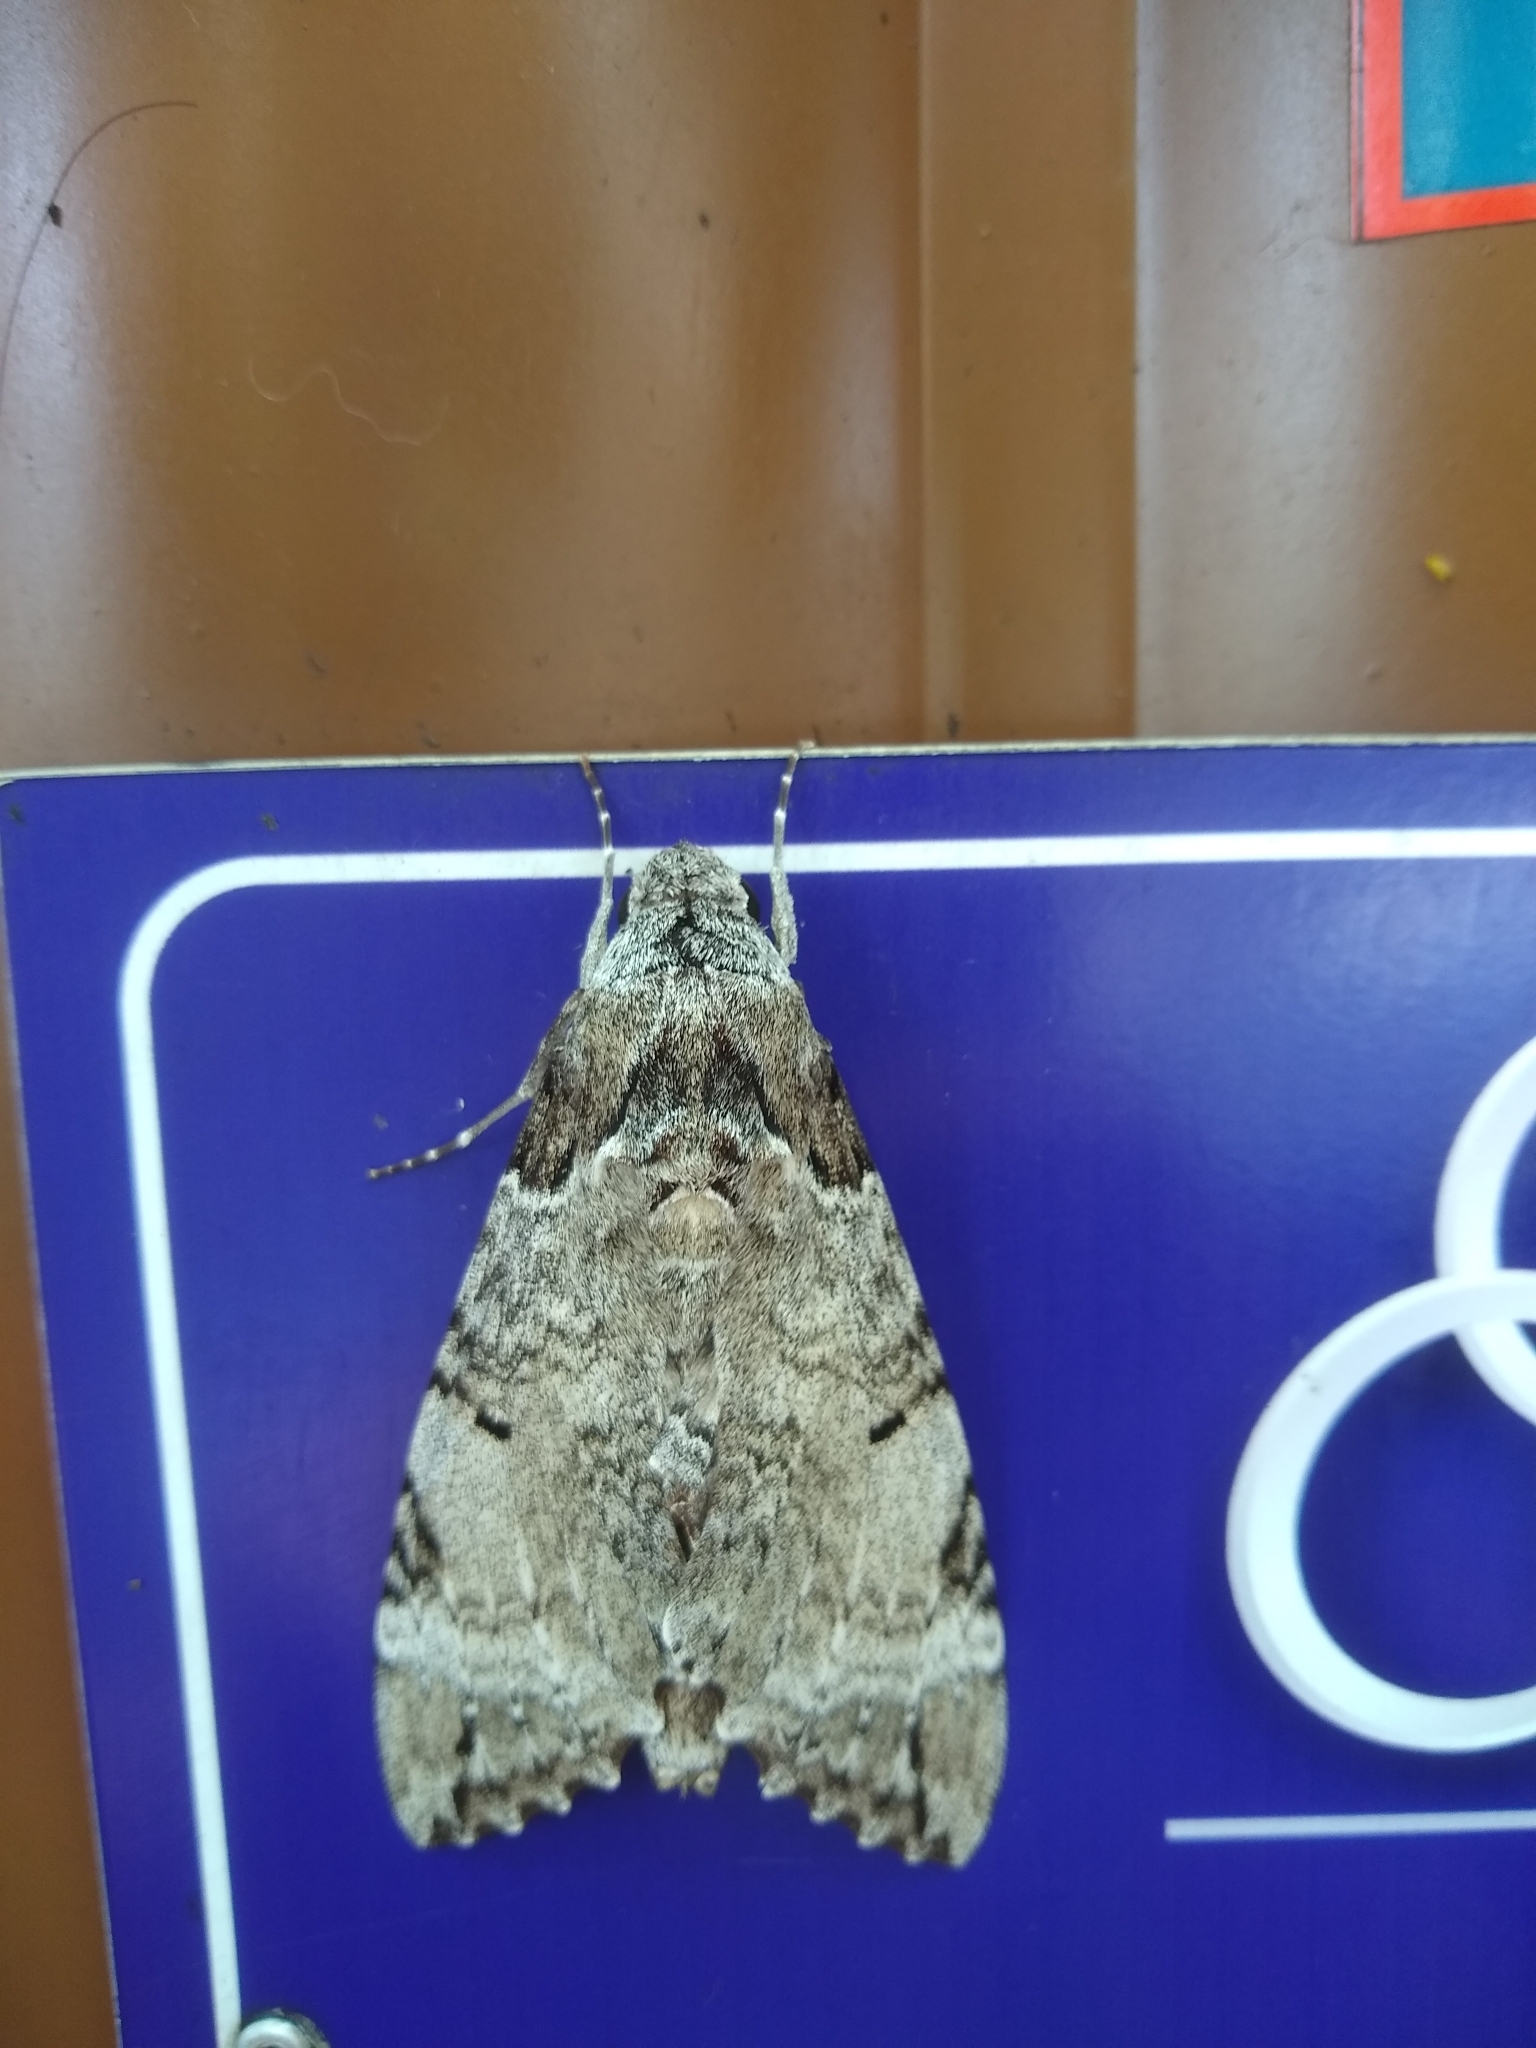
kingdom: Animalia
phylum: Arthropoda
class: Insecta
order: Lepidoptera
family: Sphingidae
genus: Pseudosphinx
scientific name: Pseudosphinx tetrio
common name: Tetrio sphinx
